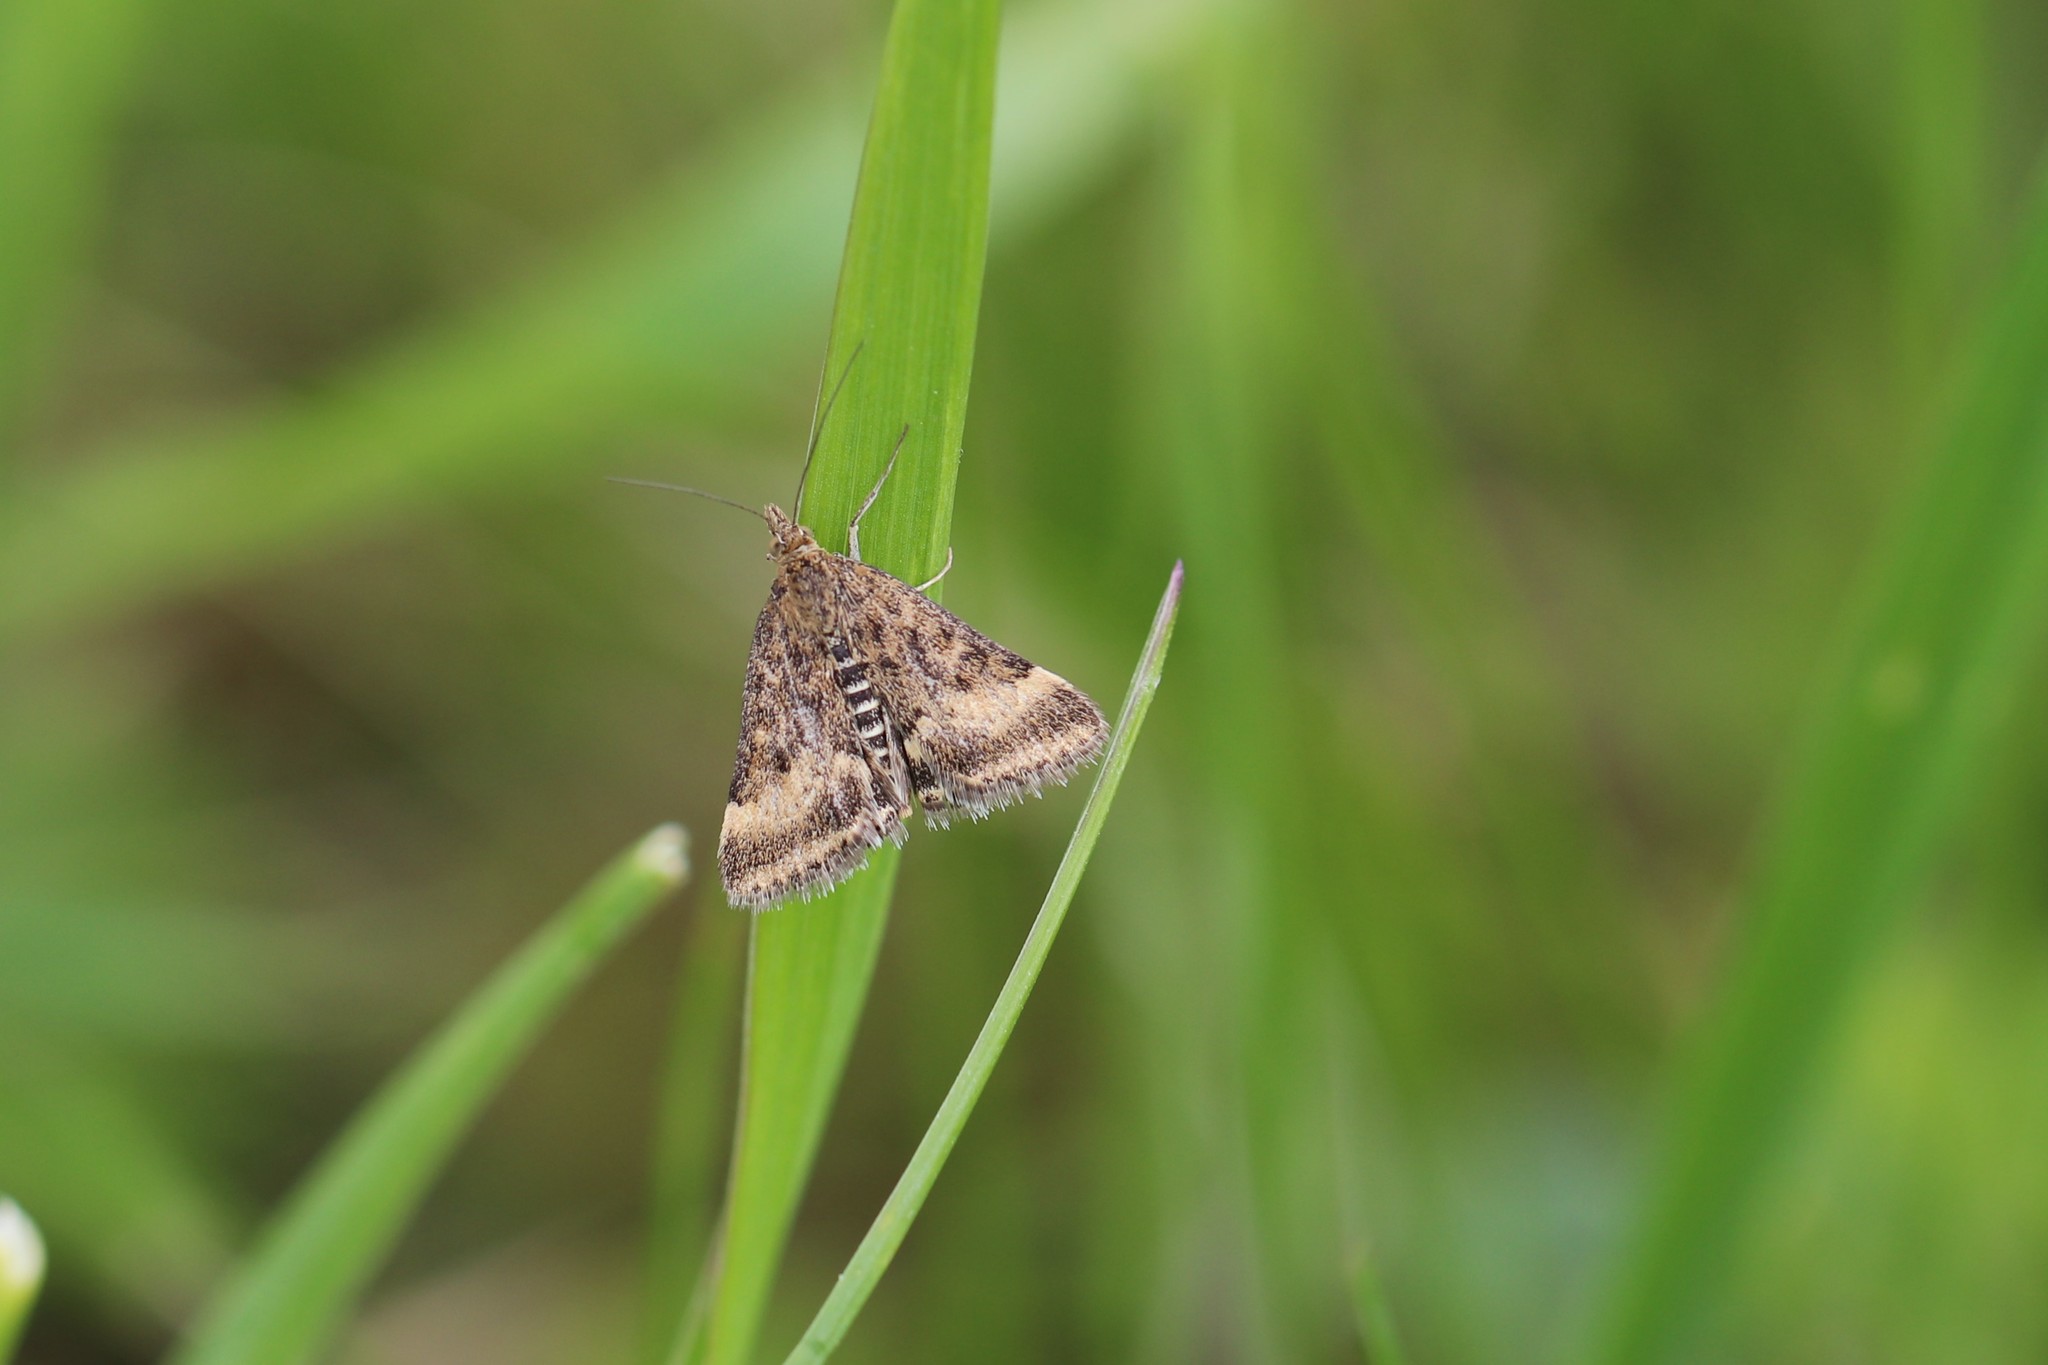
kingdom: Animalia
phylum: Arthropoda
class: Insecta
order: Lepidoptera
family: Crambidae
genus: Pyrausta
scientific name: Pyrausta despicata
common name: Straw-barred pearl
